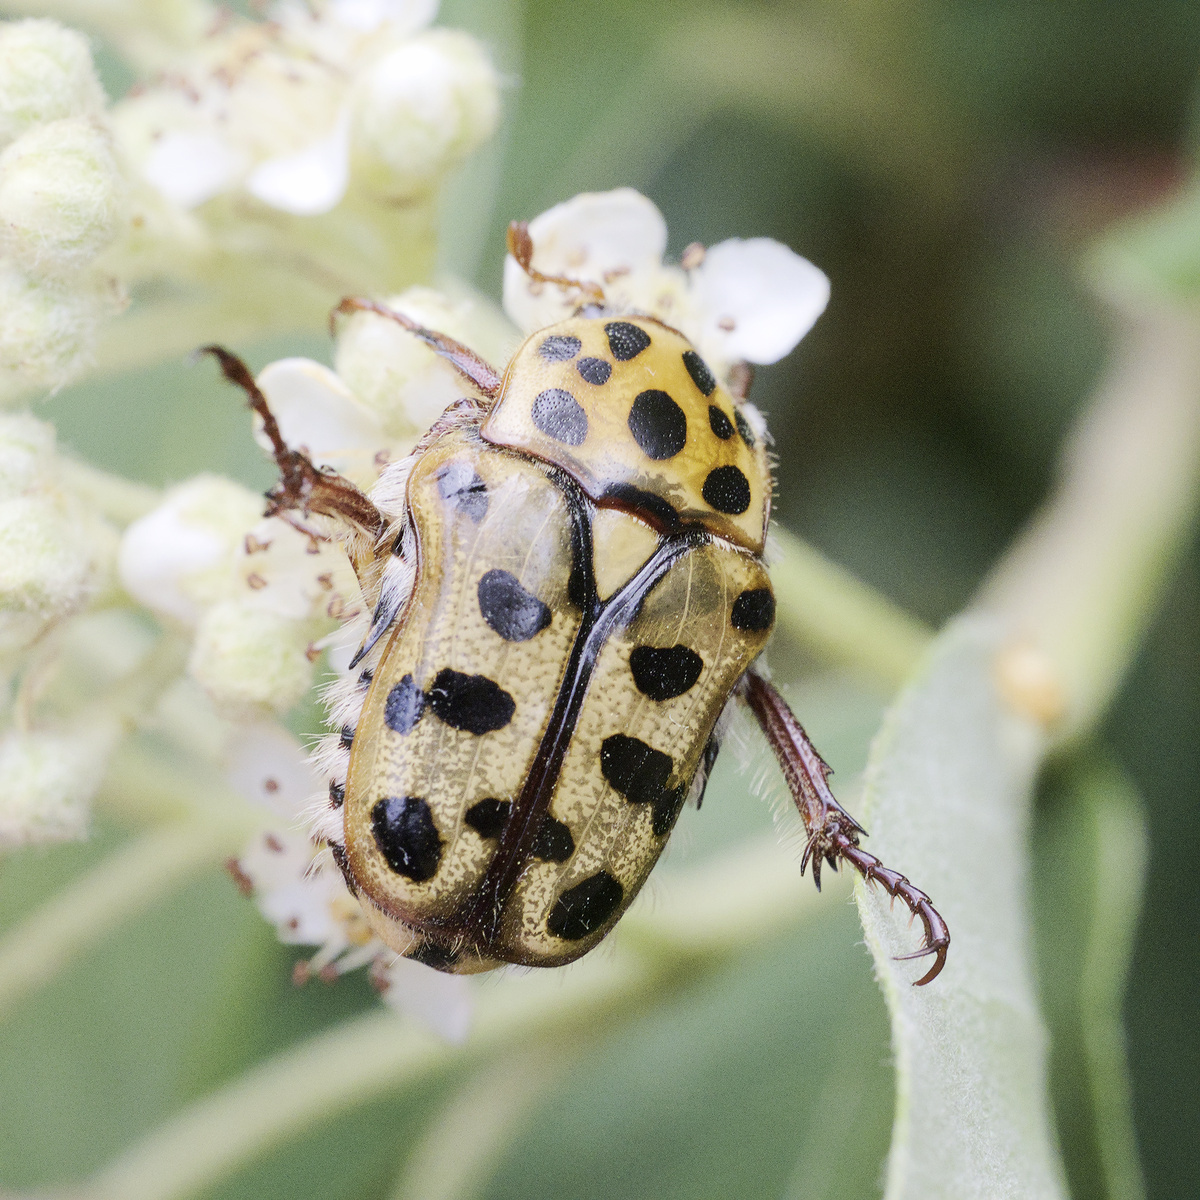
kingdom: Animalia
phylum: Arthropoda
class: Insecta
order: Coleoptera
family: Scarabaeidae
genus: Neorrhina
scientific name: Neorrhina punctatum
